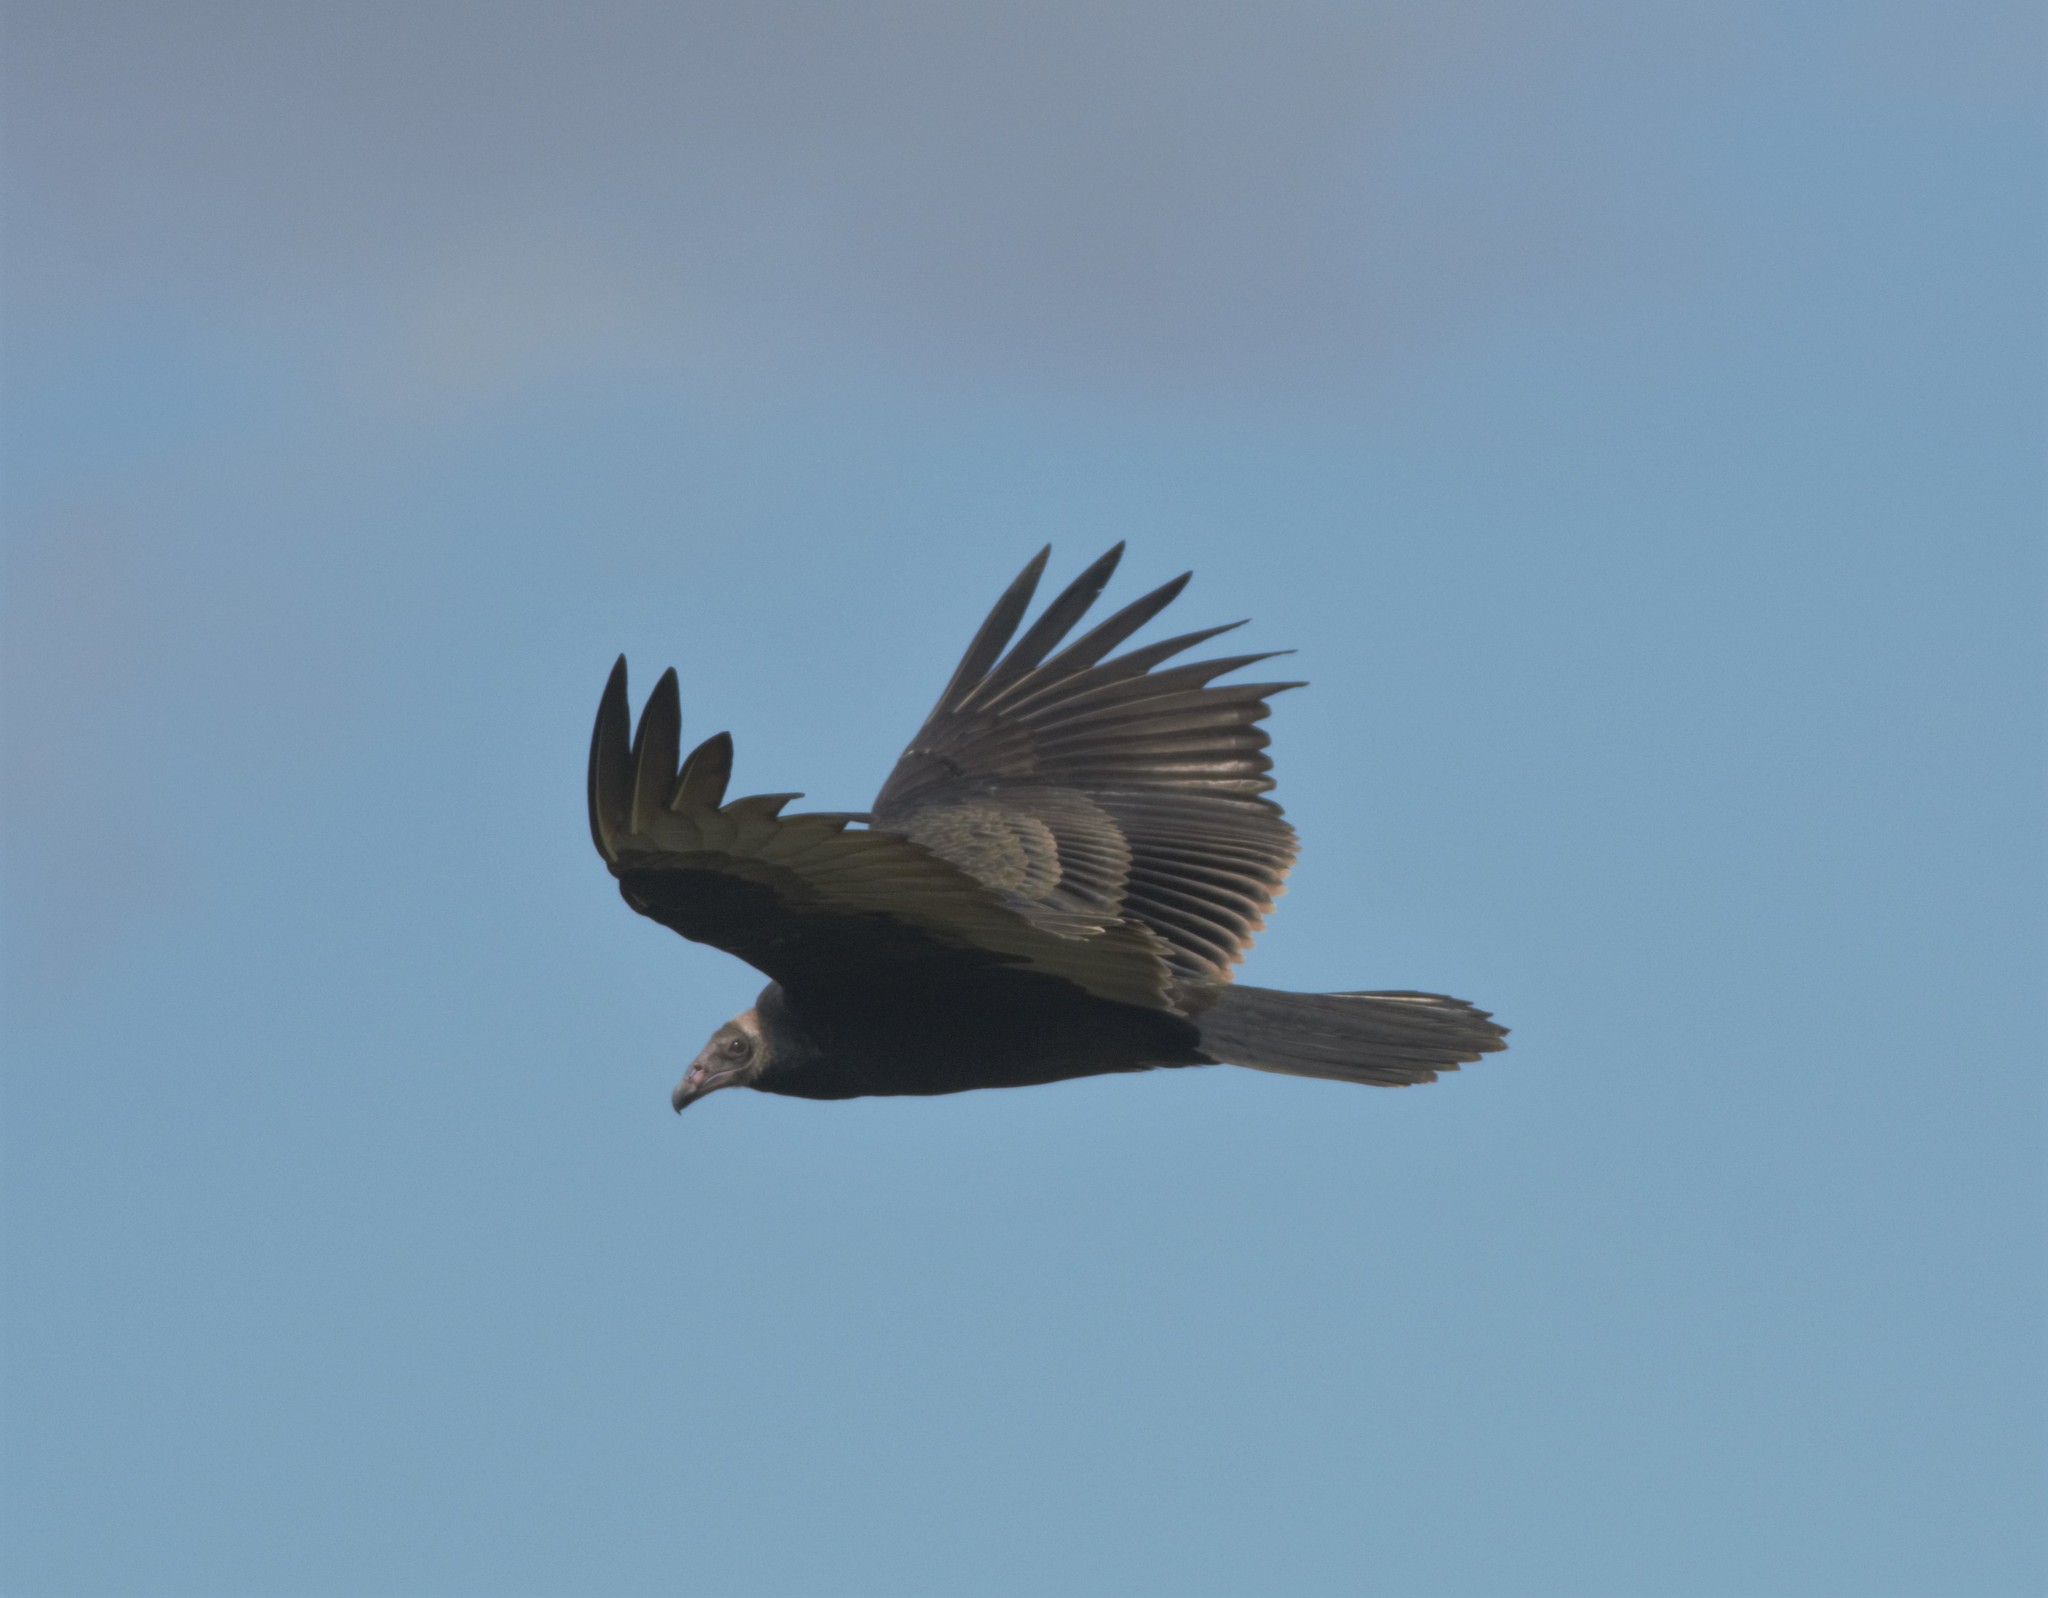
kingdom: Animalia
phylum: Chordata
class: Aves
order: Accipitriformes
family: Cathartidae
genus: Cathartes
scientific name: Cathartes aura
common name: Turkey vulture
